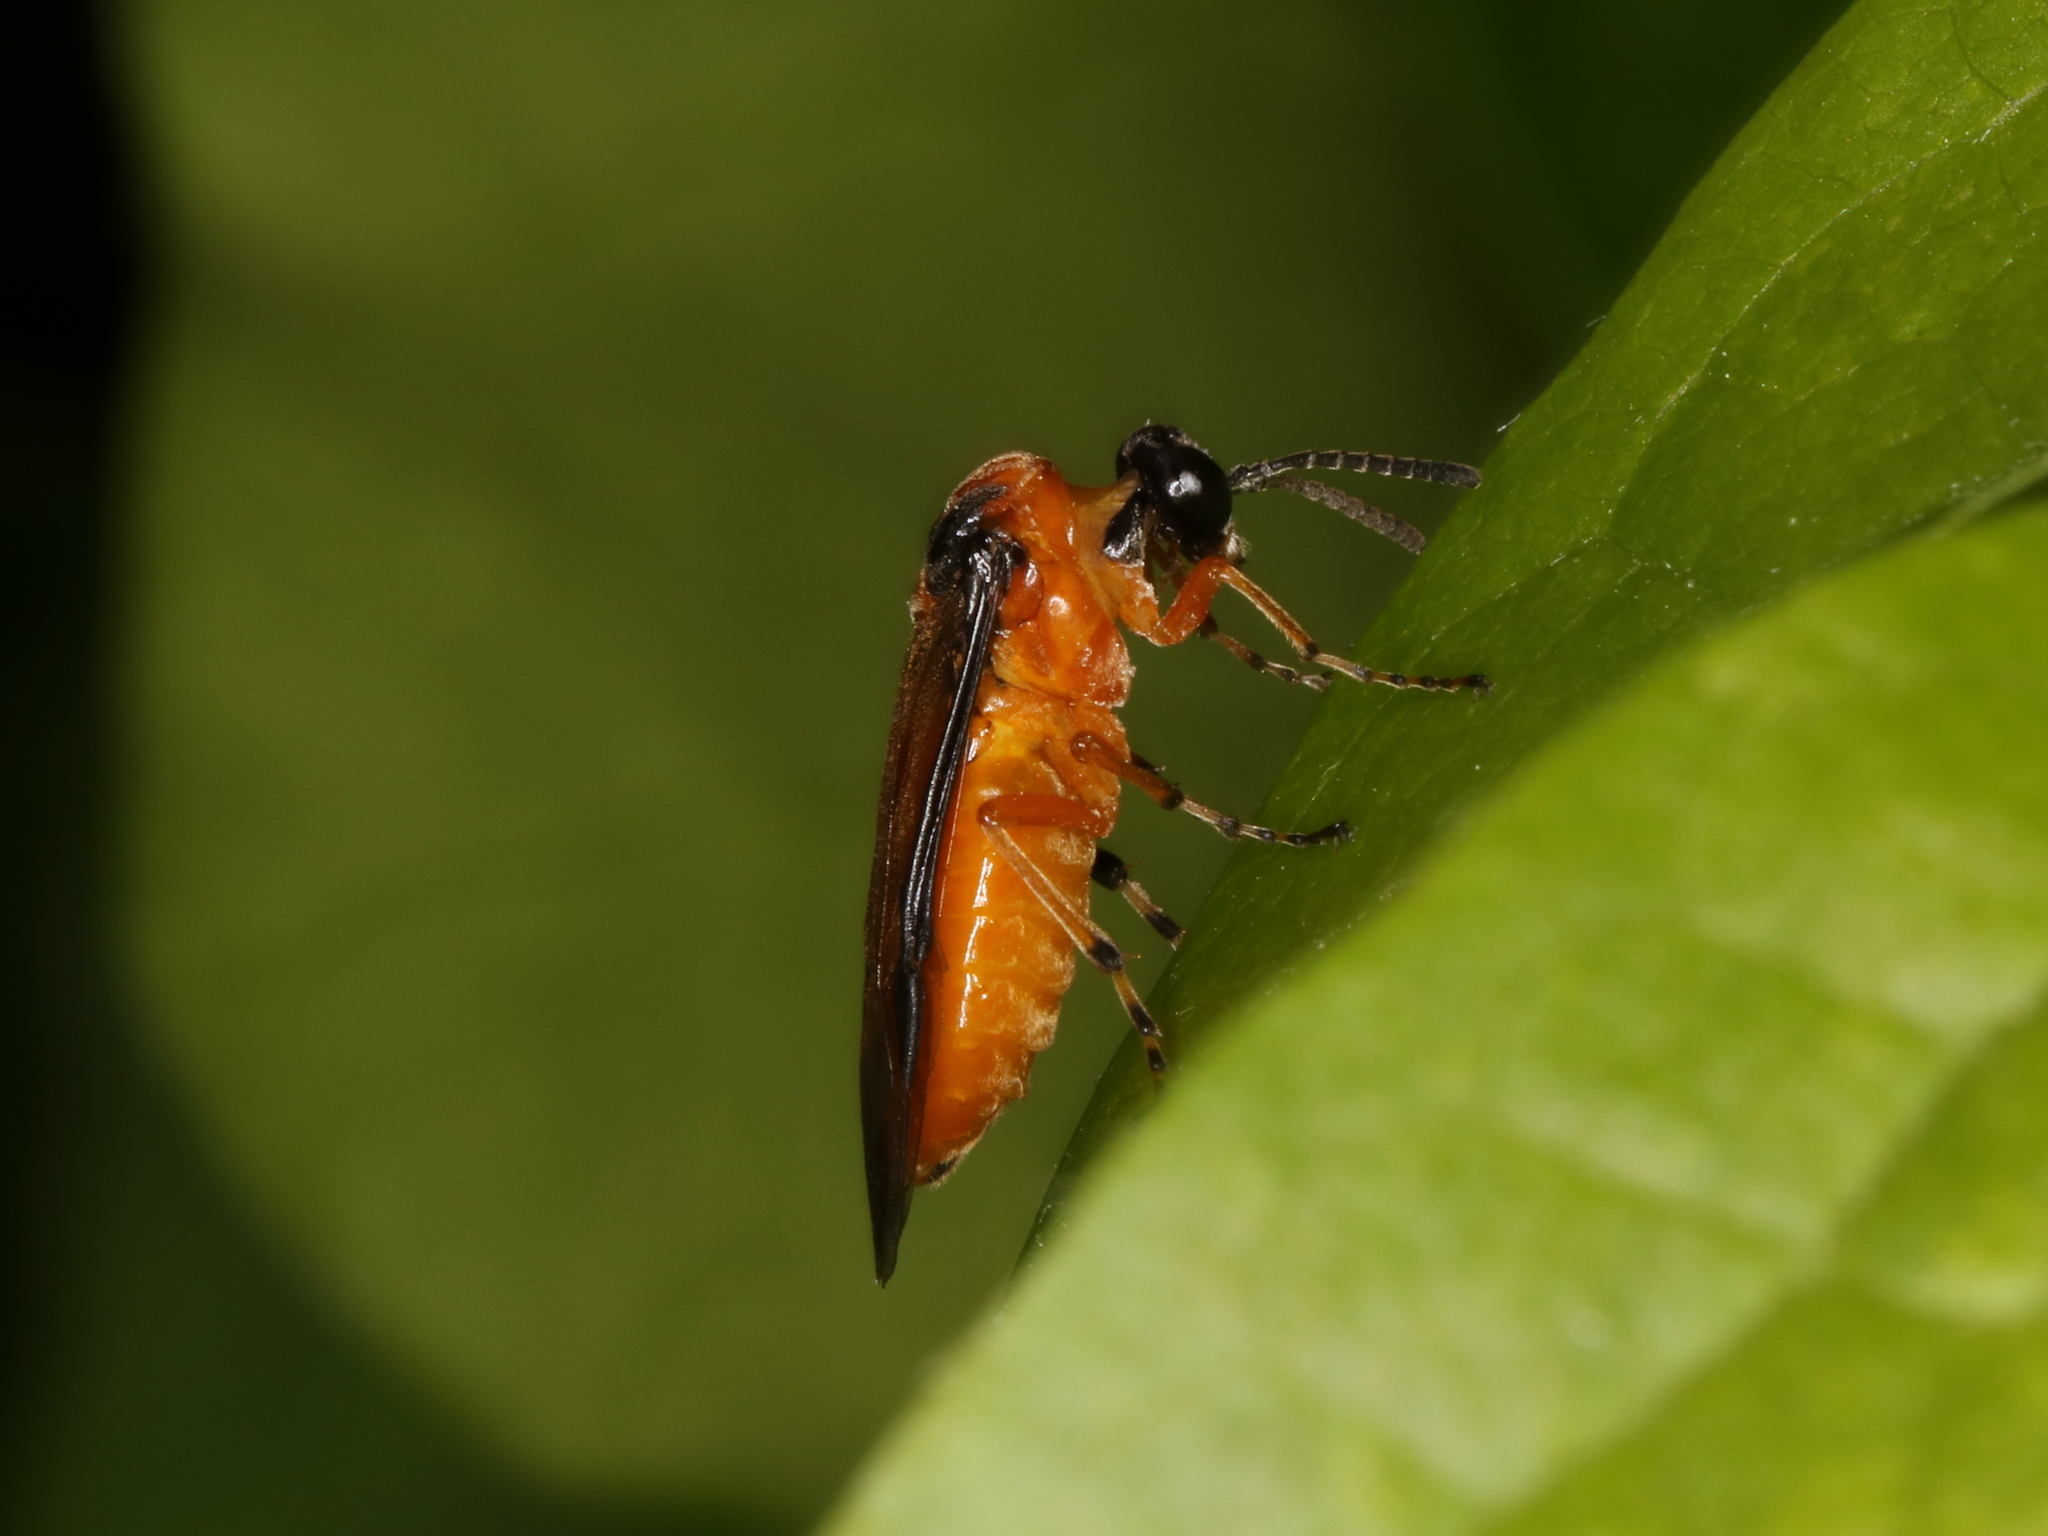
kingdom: Animalia
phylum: Arthropoda
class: Insecta
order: Hymenoptera
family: Tenthredinidae
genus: Athalia
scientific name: Athalia rosae
